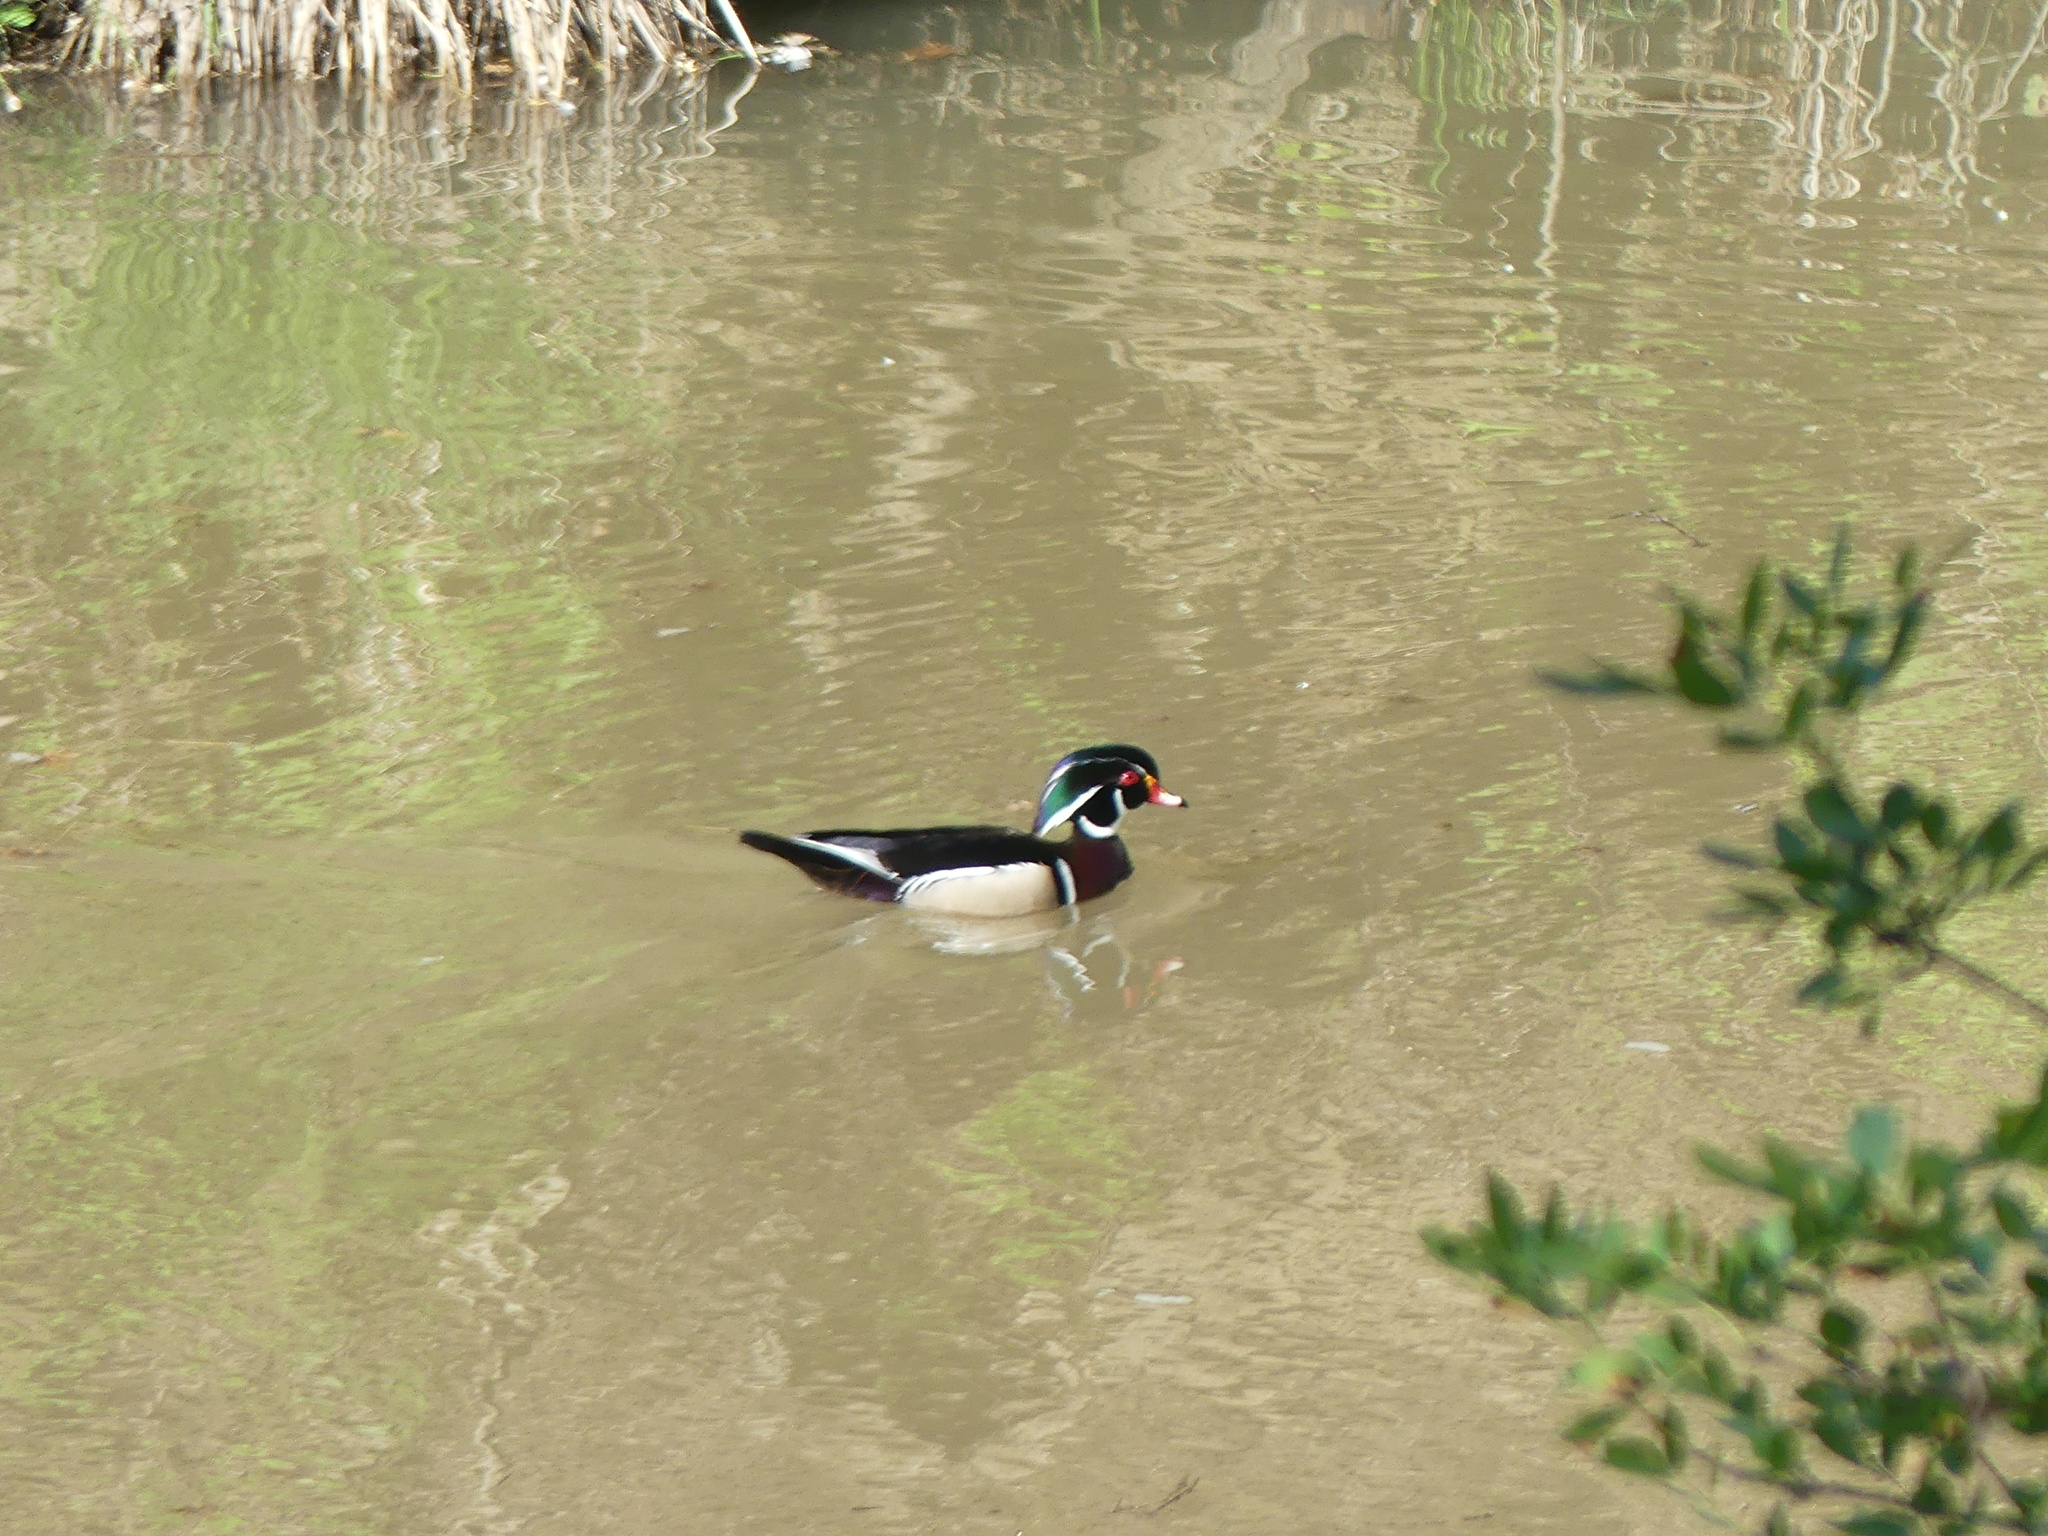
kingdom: Animalia
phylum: Chordata
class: Aves
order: Anseriformes
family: Anatidae
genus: Aix
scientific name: Aix sponsa
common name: Wood duck
